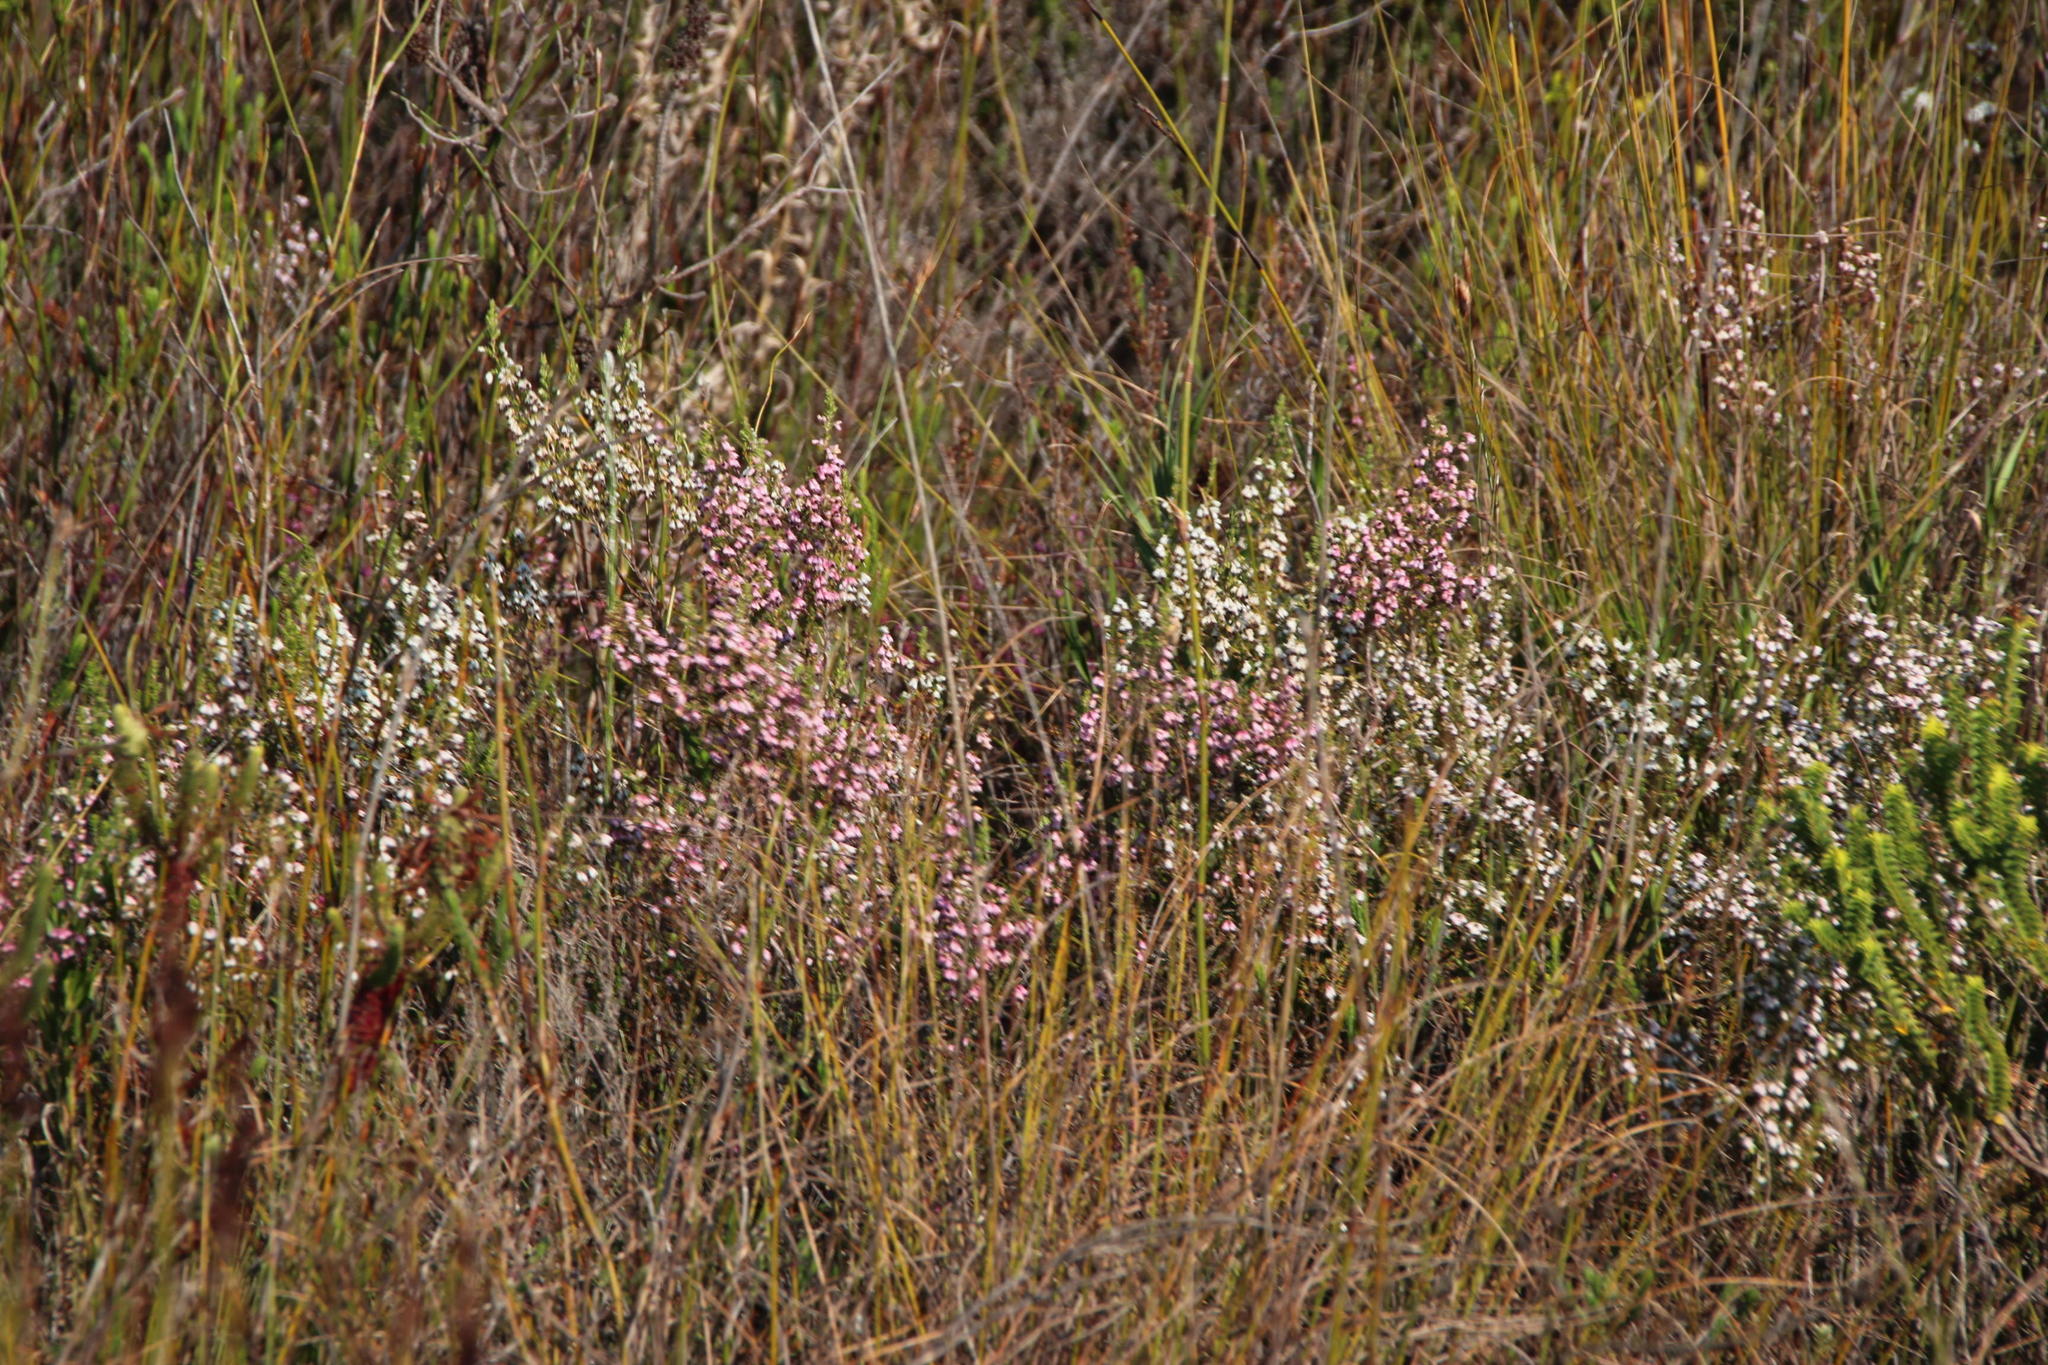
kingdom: Plantae
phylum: Tracheophyta
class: Magnoliopsida
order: Ericales
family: Ericaceae
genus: Erica
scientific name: Erica imbricata
